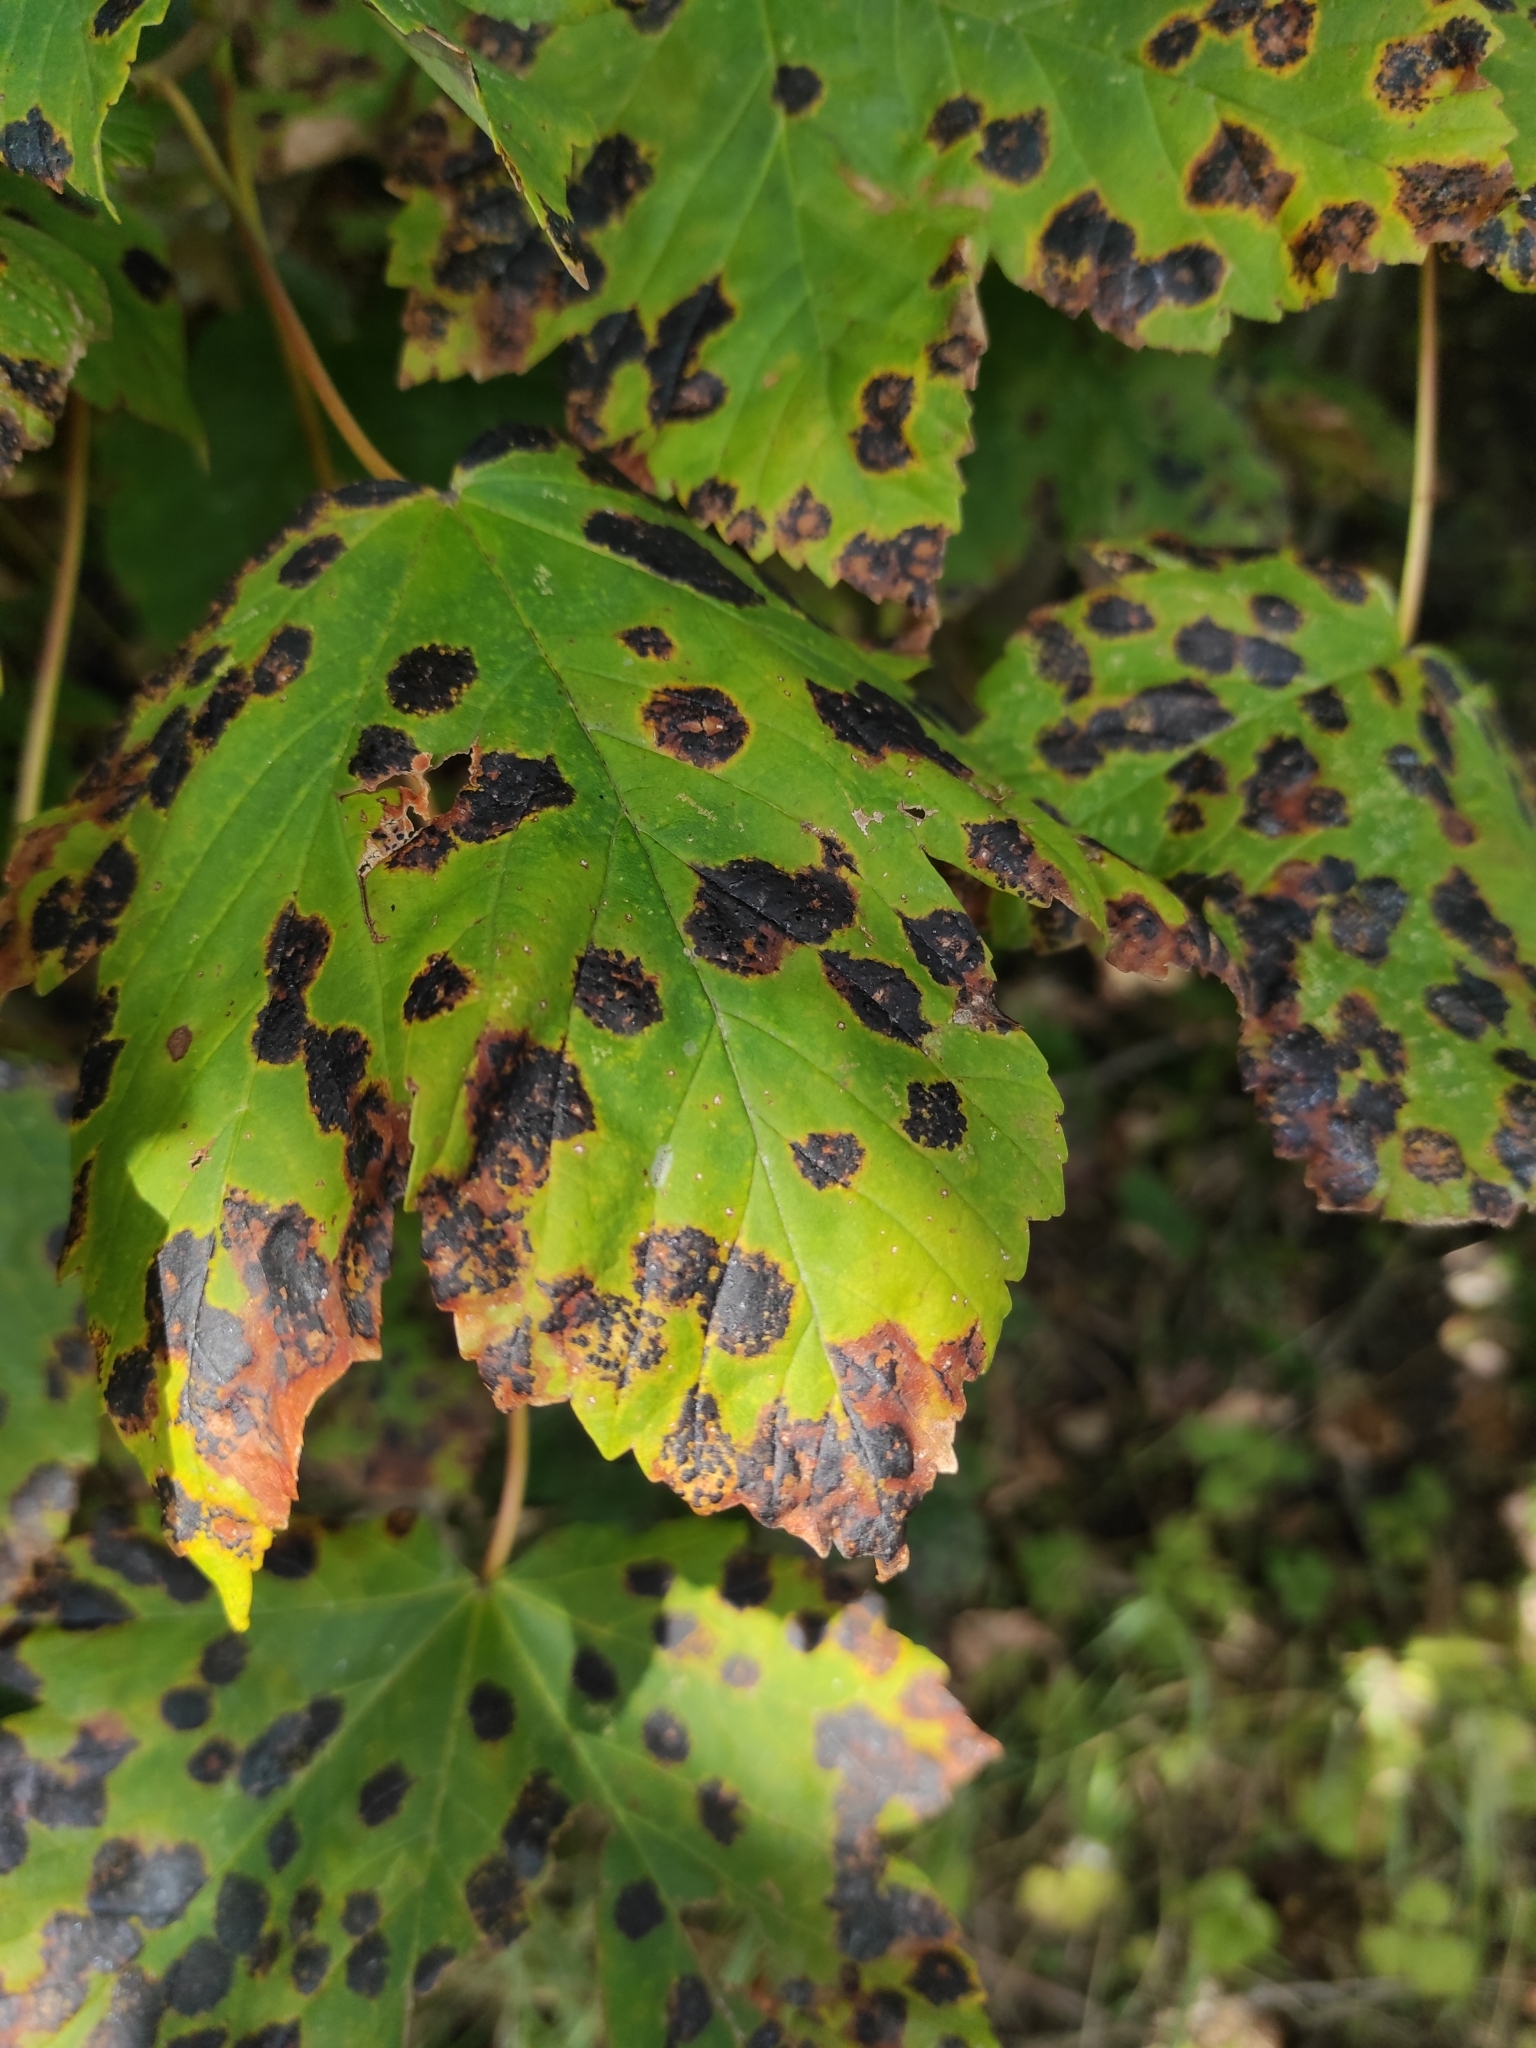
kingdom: Fungi
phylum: Ascomycota
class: Leotiomycetes
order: Rhytismatales
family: Rhytismataceae
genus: Rhytisma
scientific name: Rhytisma acerinum
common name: European tar spot
